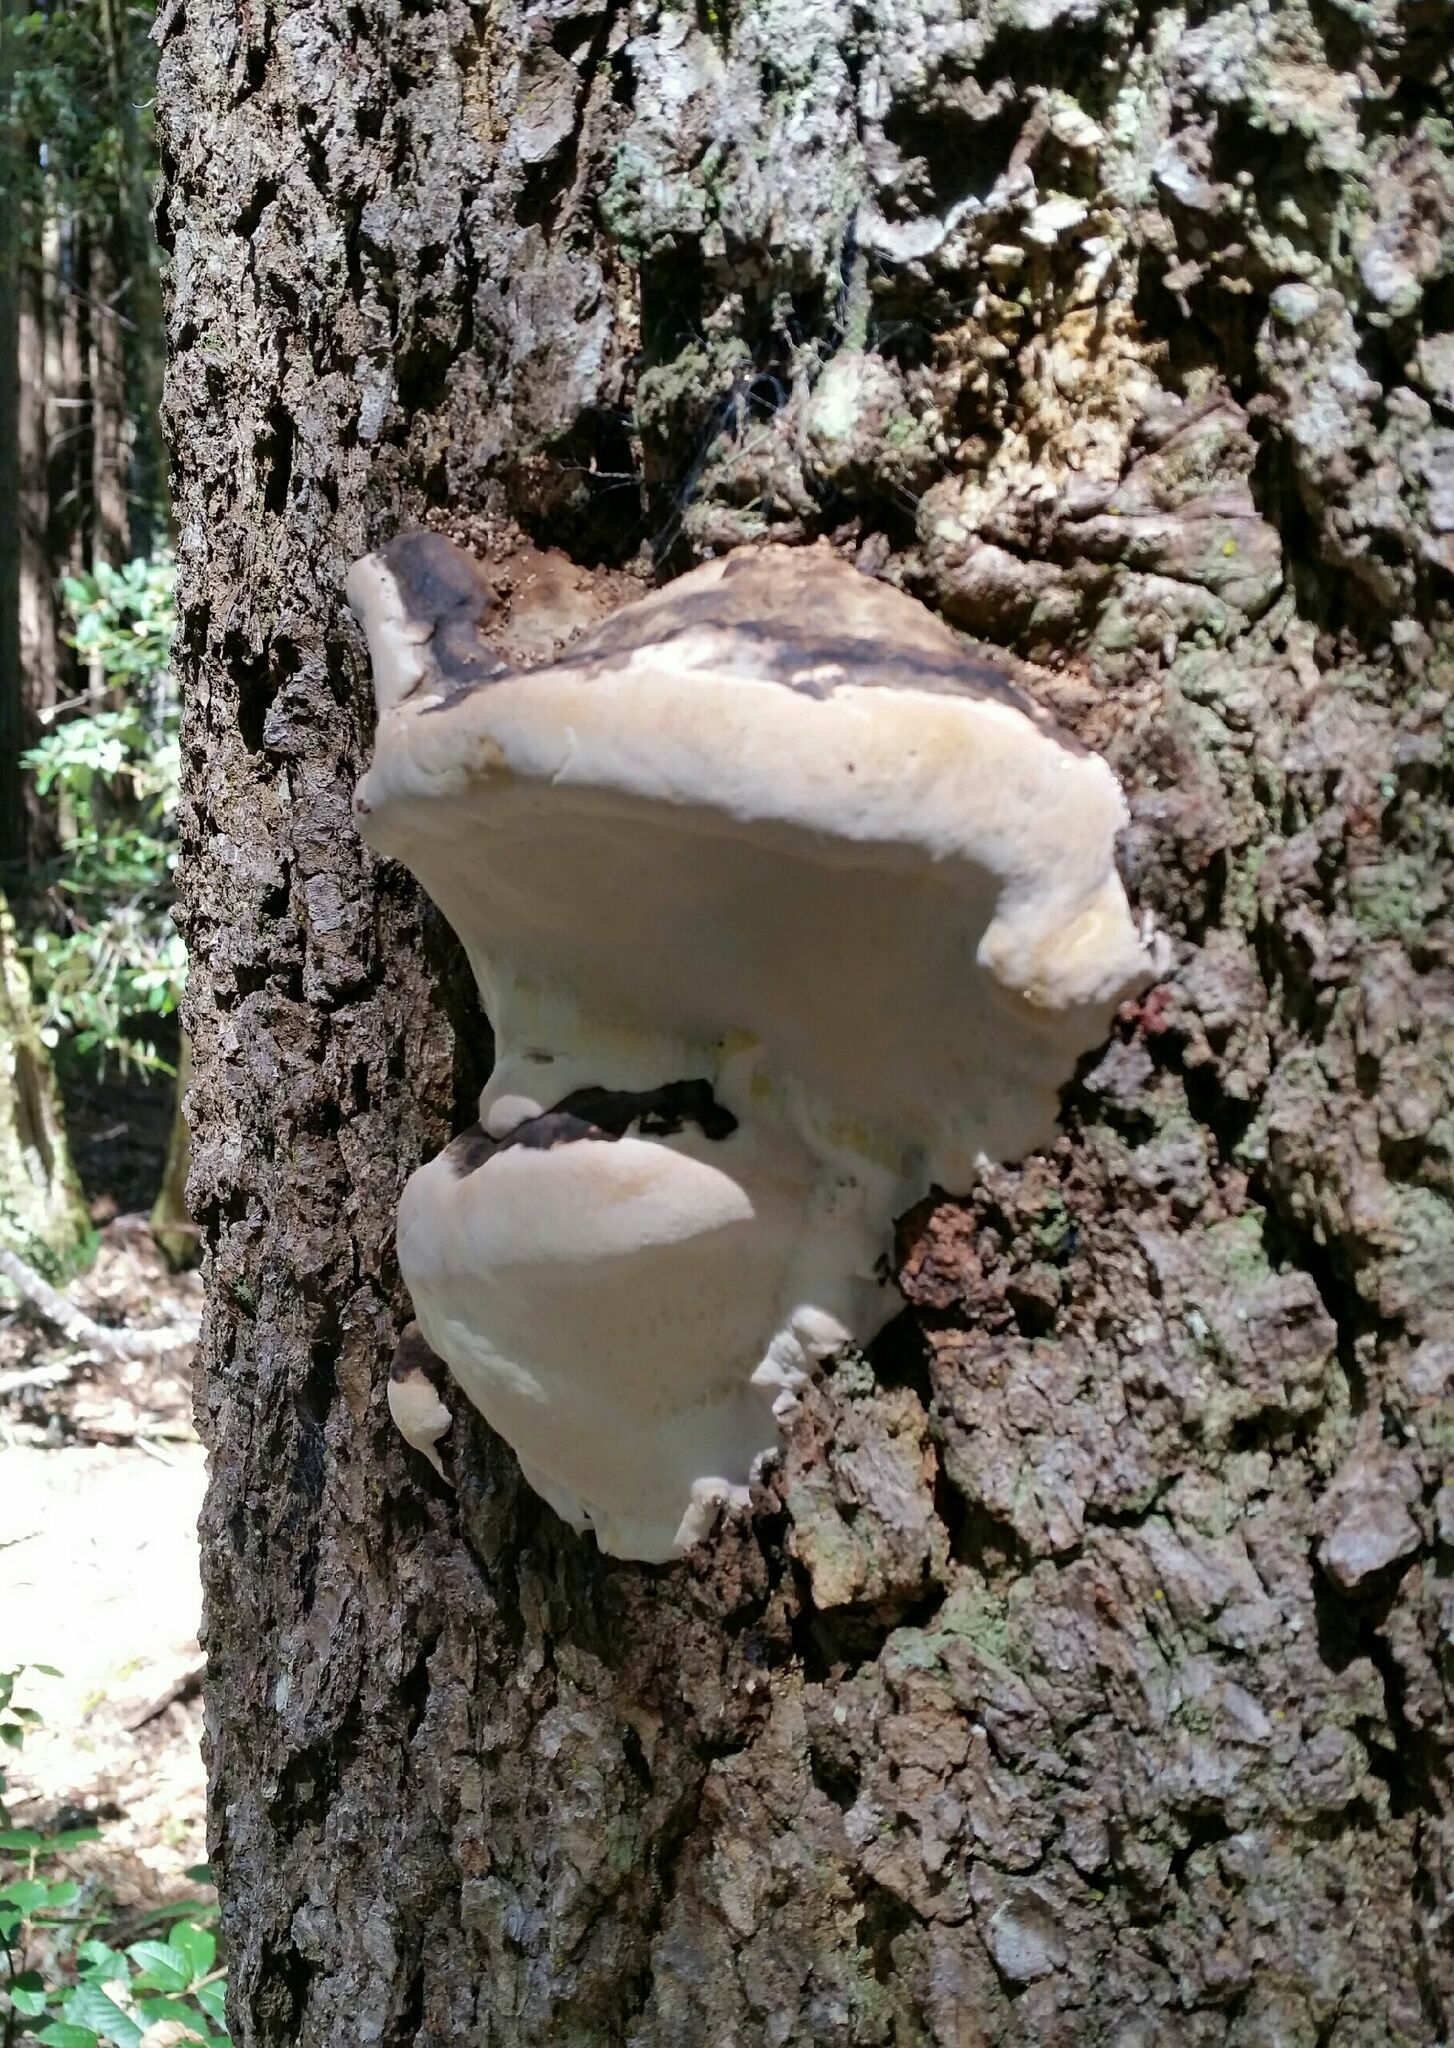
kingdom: Fungi
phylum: Basidiomycota
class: Agaricomycetes
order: Polyporales
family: Fomitopsidaceae
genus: Fomitopsis
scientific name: Fomitopsis ochracea
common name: American brown fomitopsis
